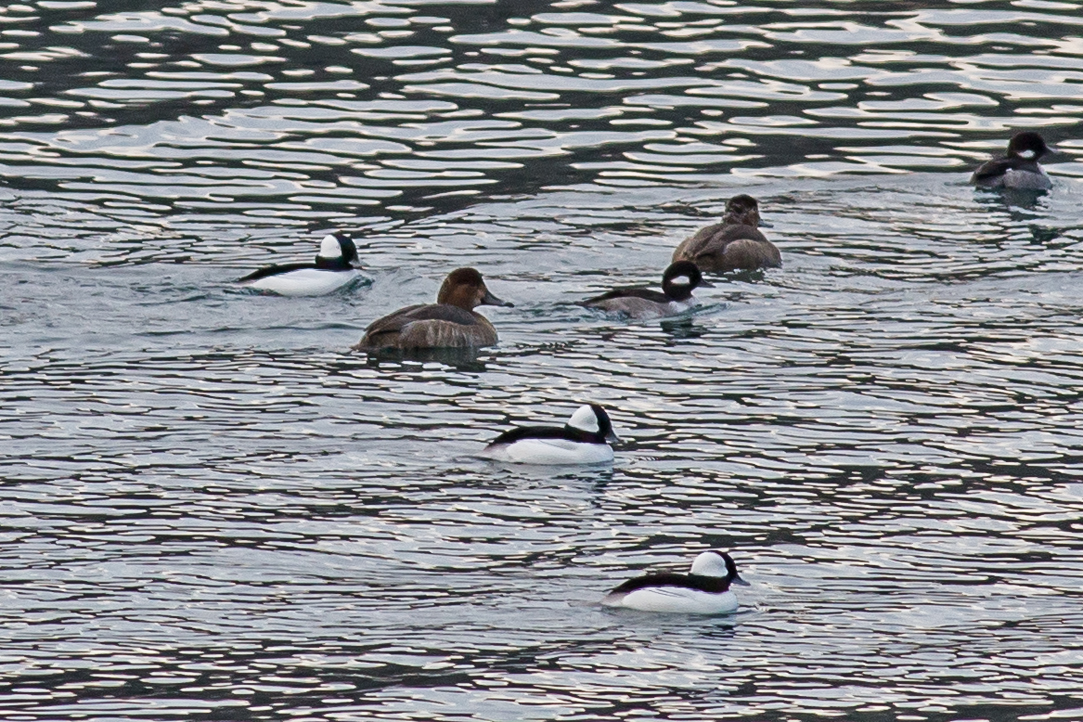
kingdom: Animalia
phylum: Chordata
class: Aves
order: Anseriformes
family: Anatidae
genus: Aythya
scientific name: Aythya americana
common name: Redhead
